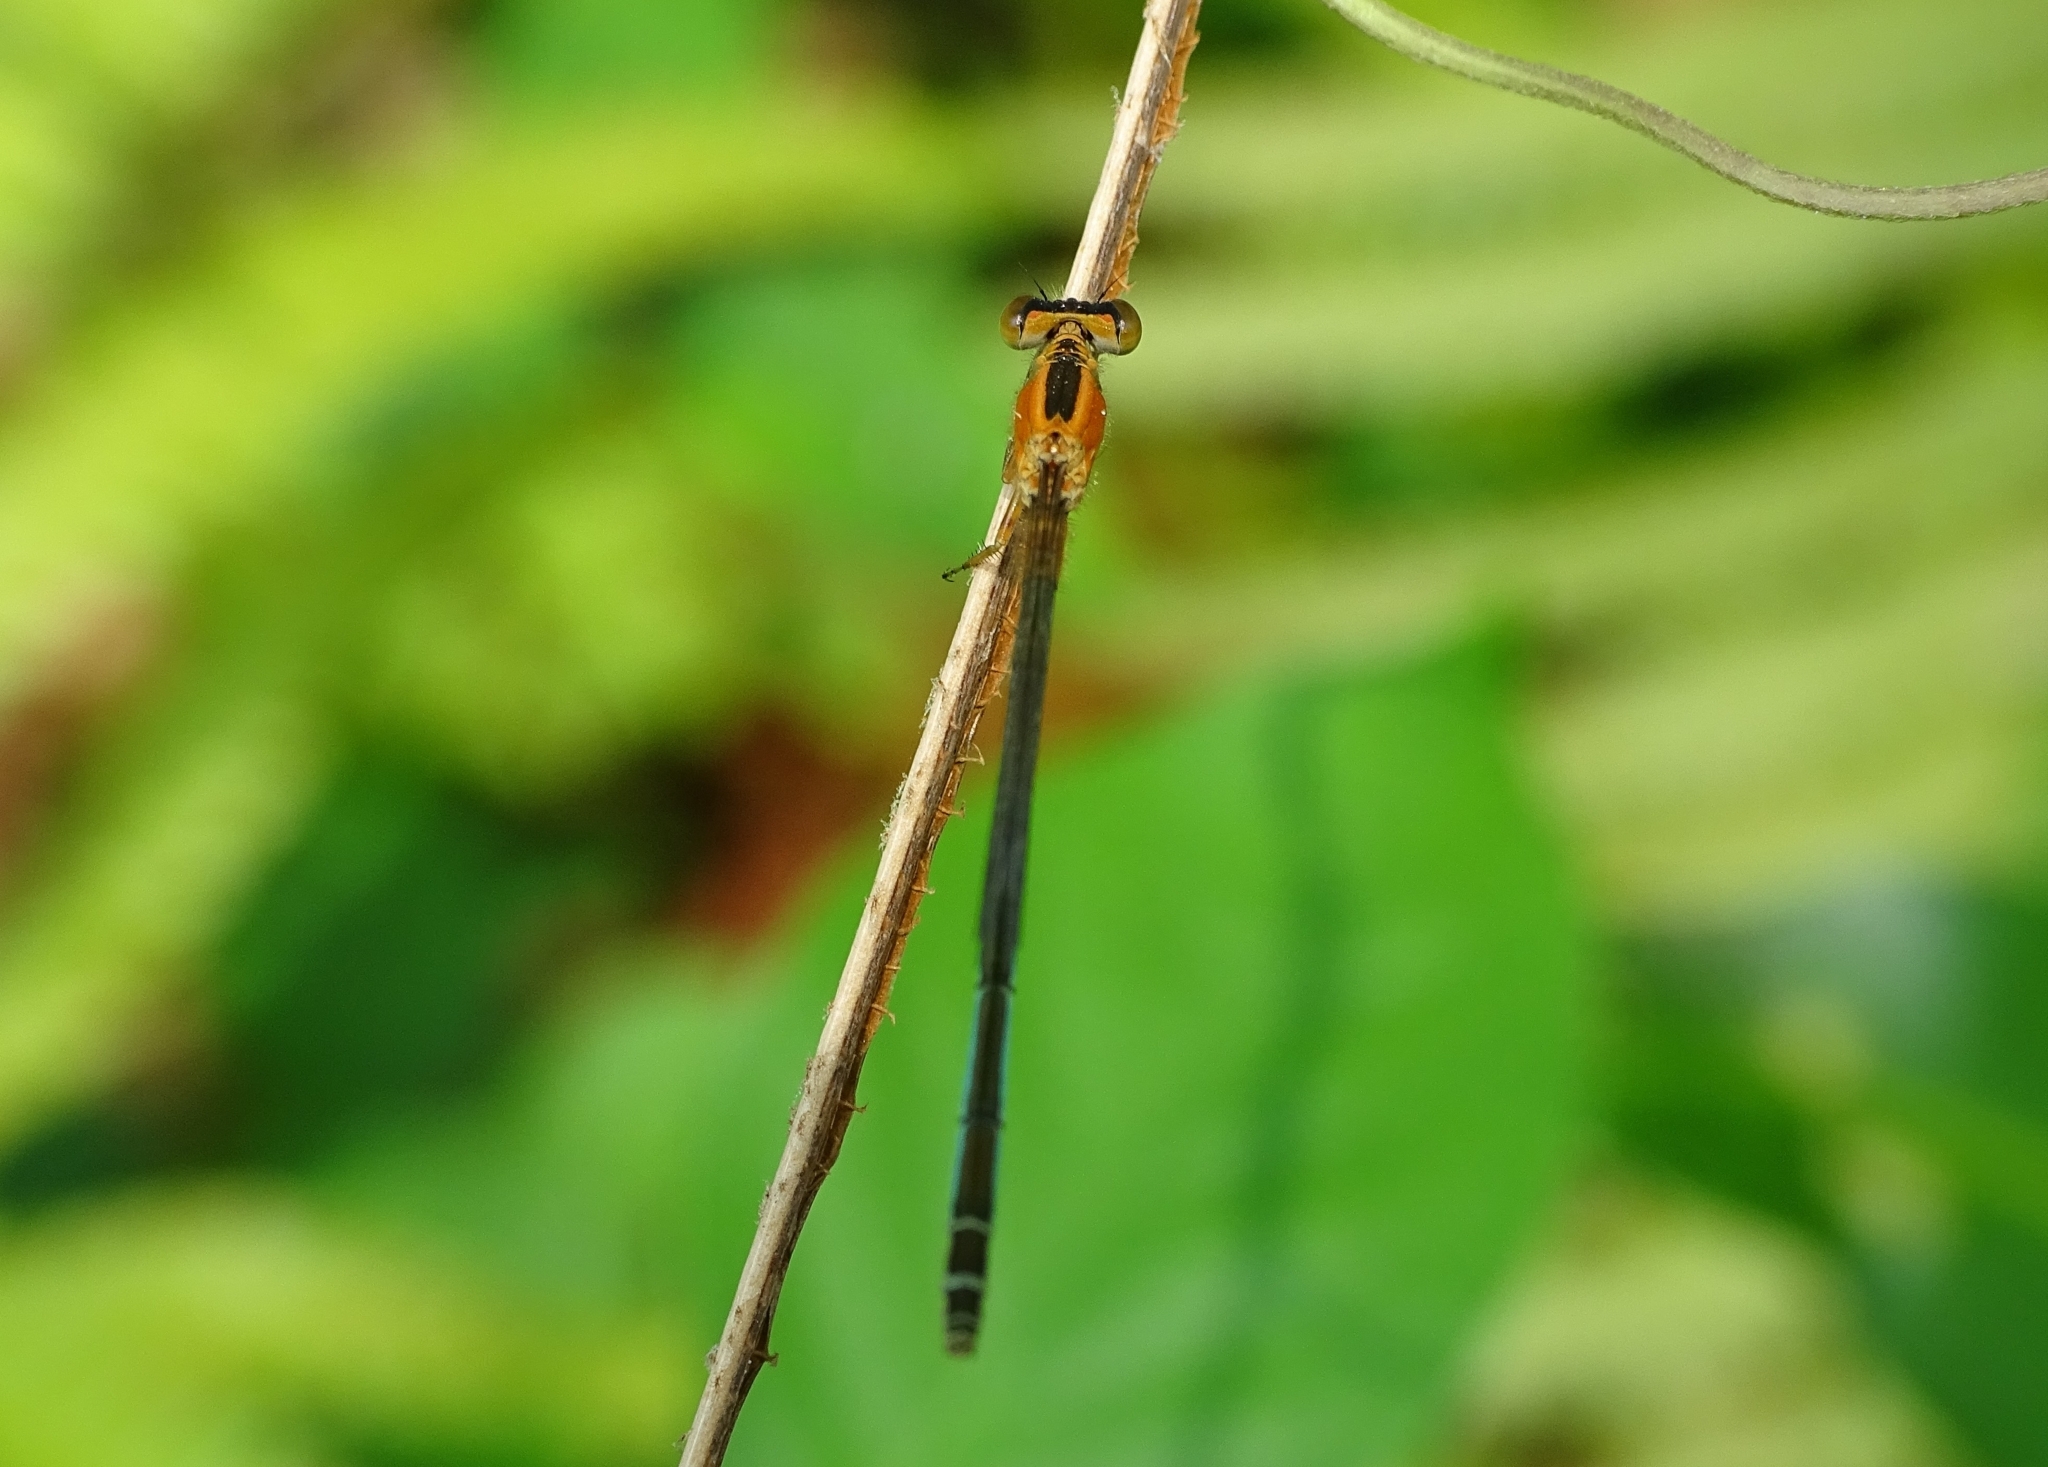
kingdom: Animalia
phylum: Arthropoda
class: Insecta
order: Odonata
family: Coenagrionidae
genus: Ischnura
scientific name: Ischnura senegalensis
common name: Tropical bluetail
